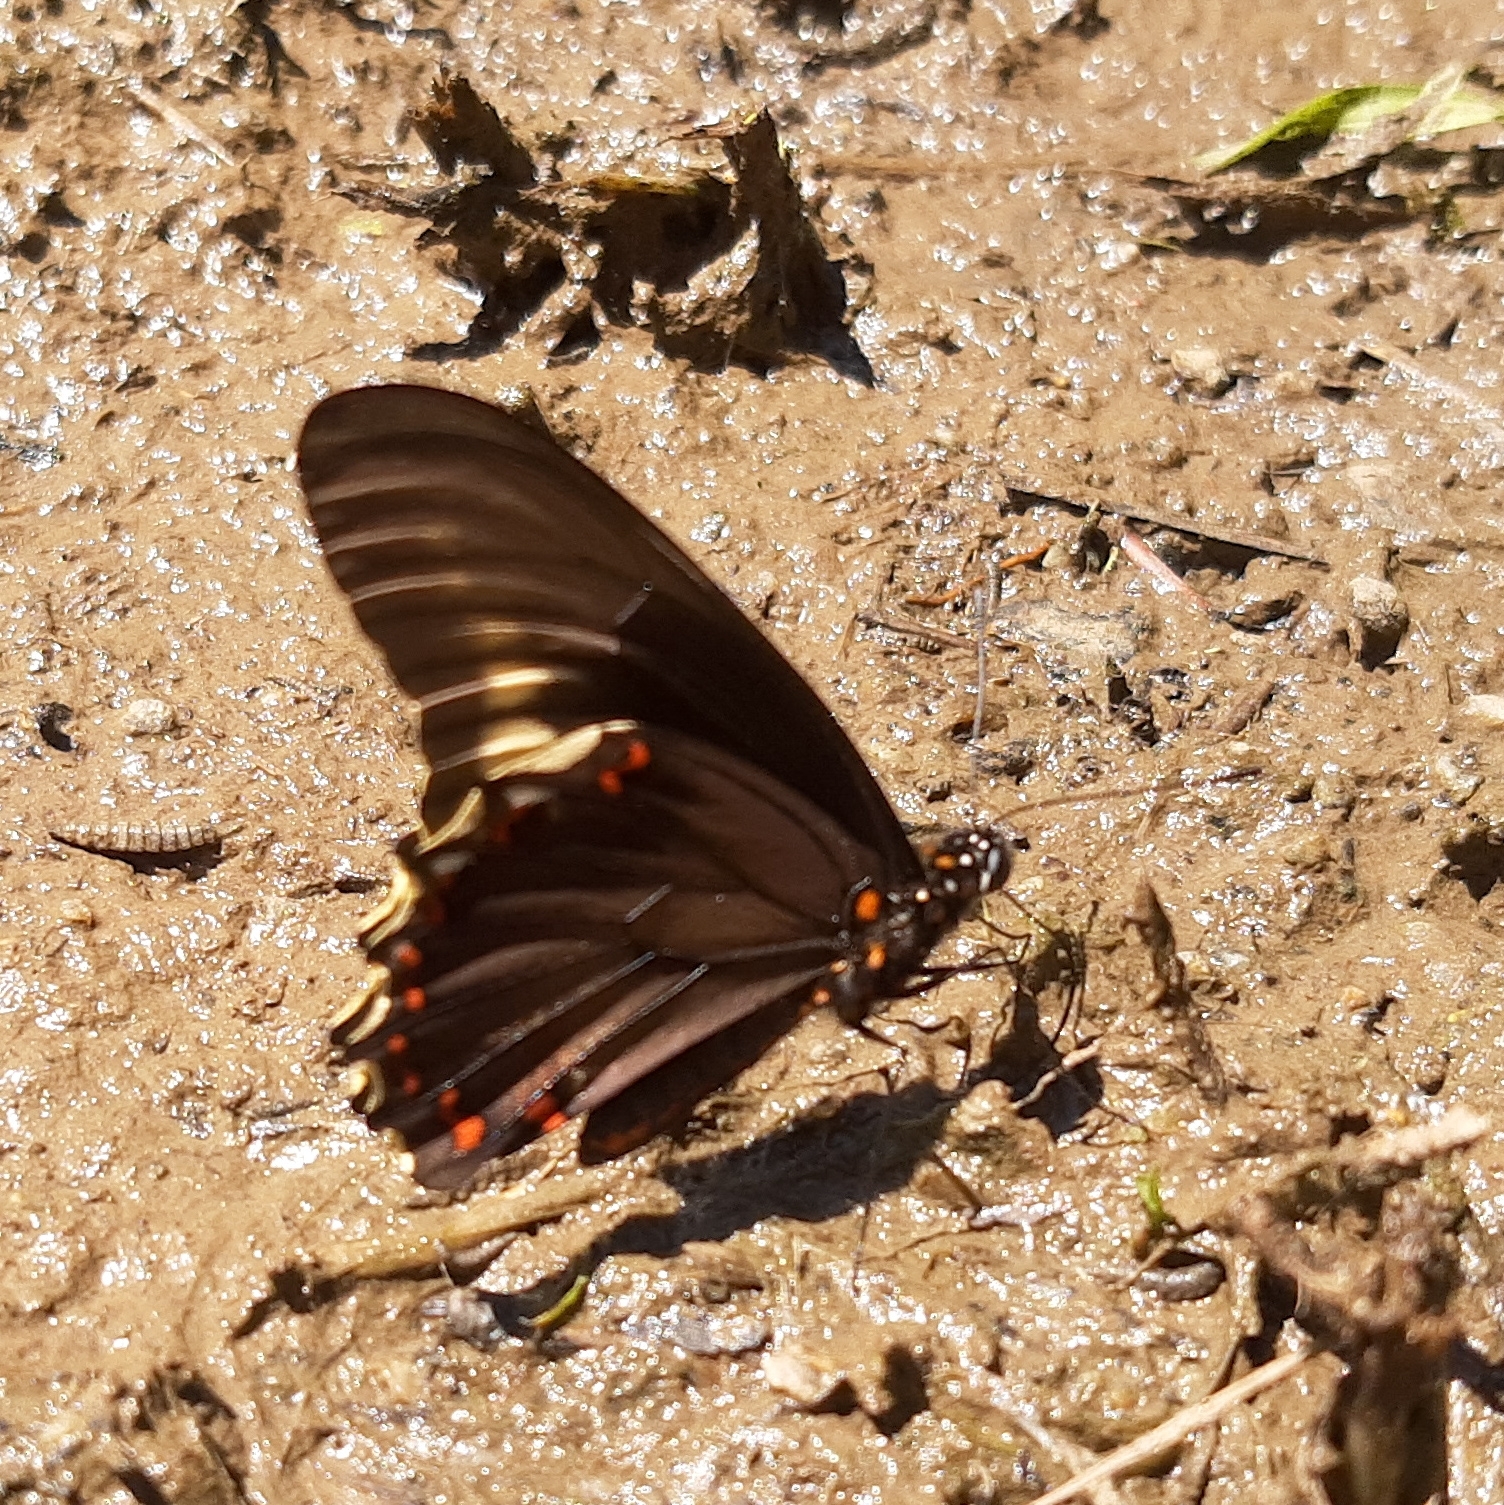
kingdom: Animalia
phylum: Arthropoda
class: Insecta
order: Lepidoptera
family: Papilionidae
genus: Battus
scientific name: Battus polydamas
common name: Polydamas swallowtail
